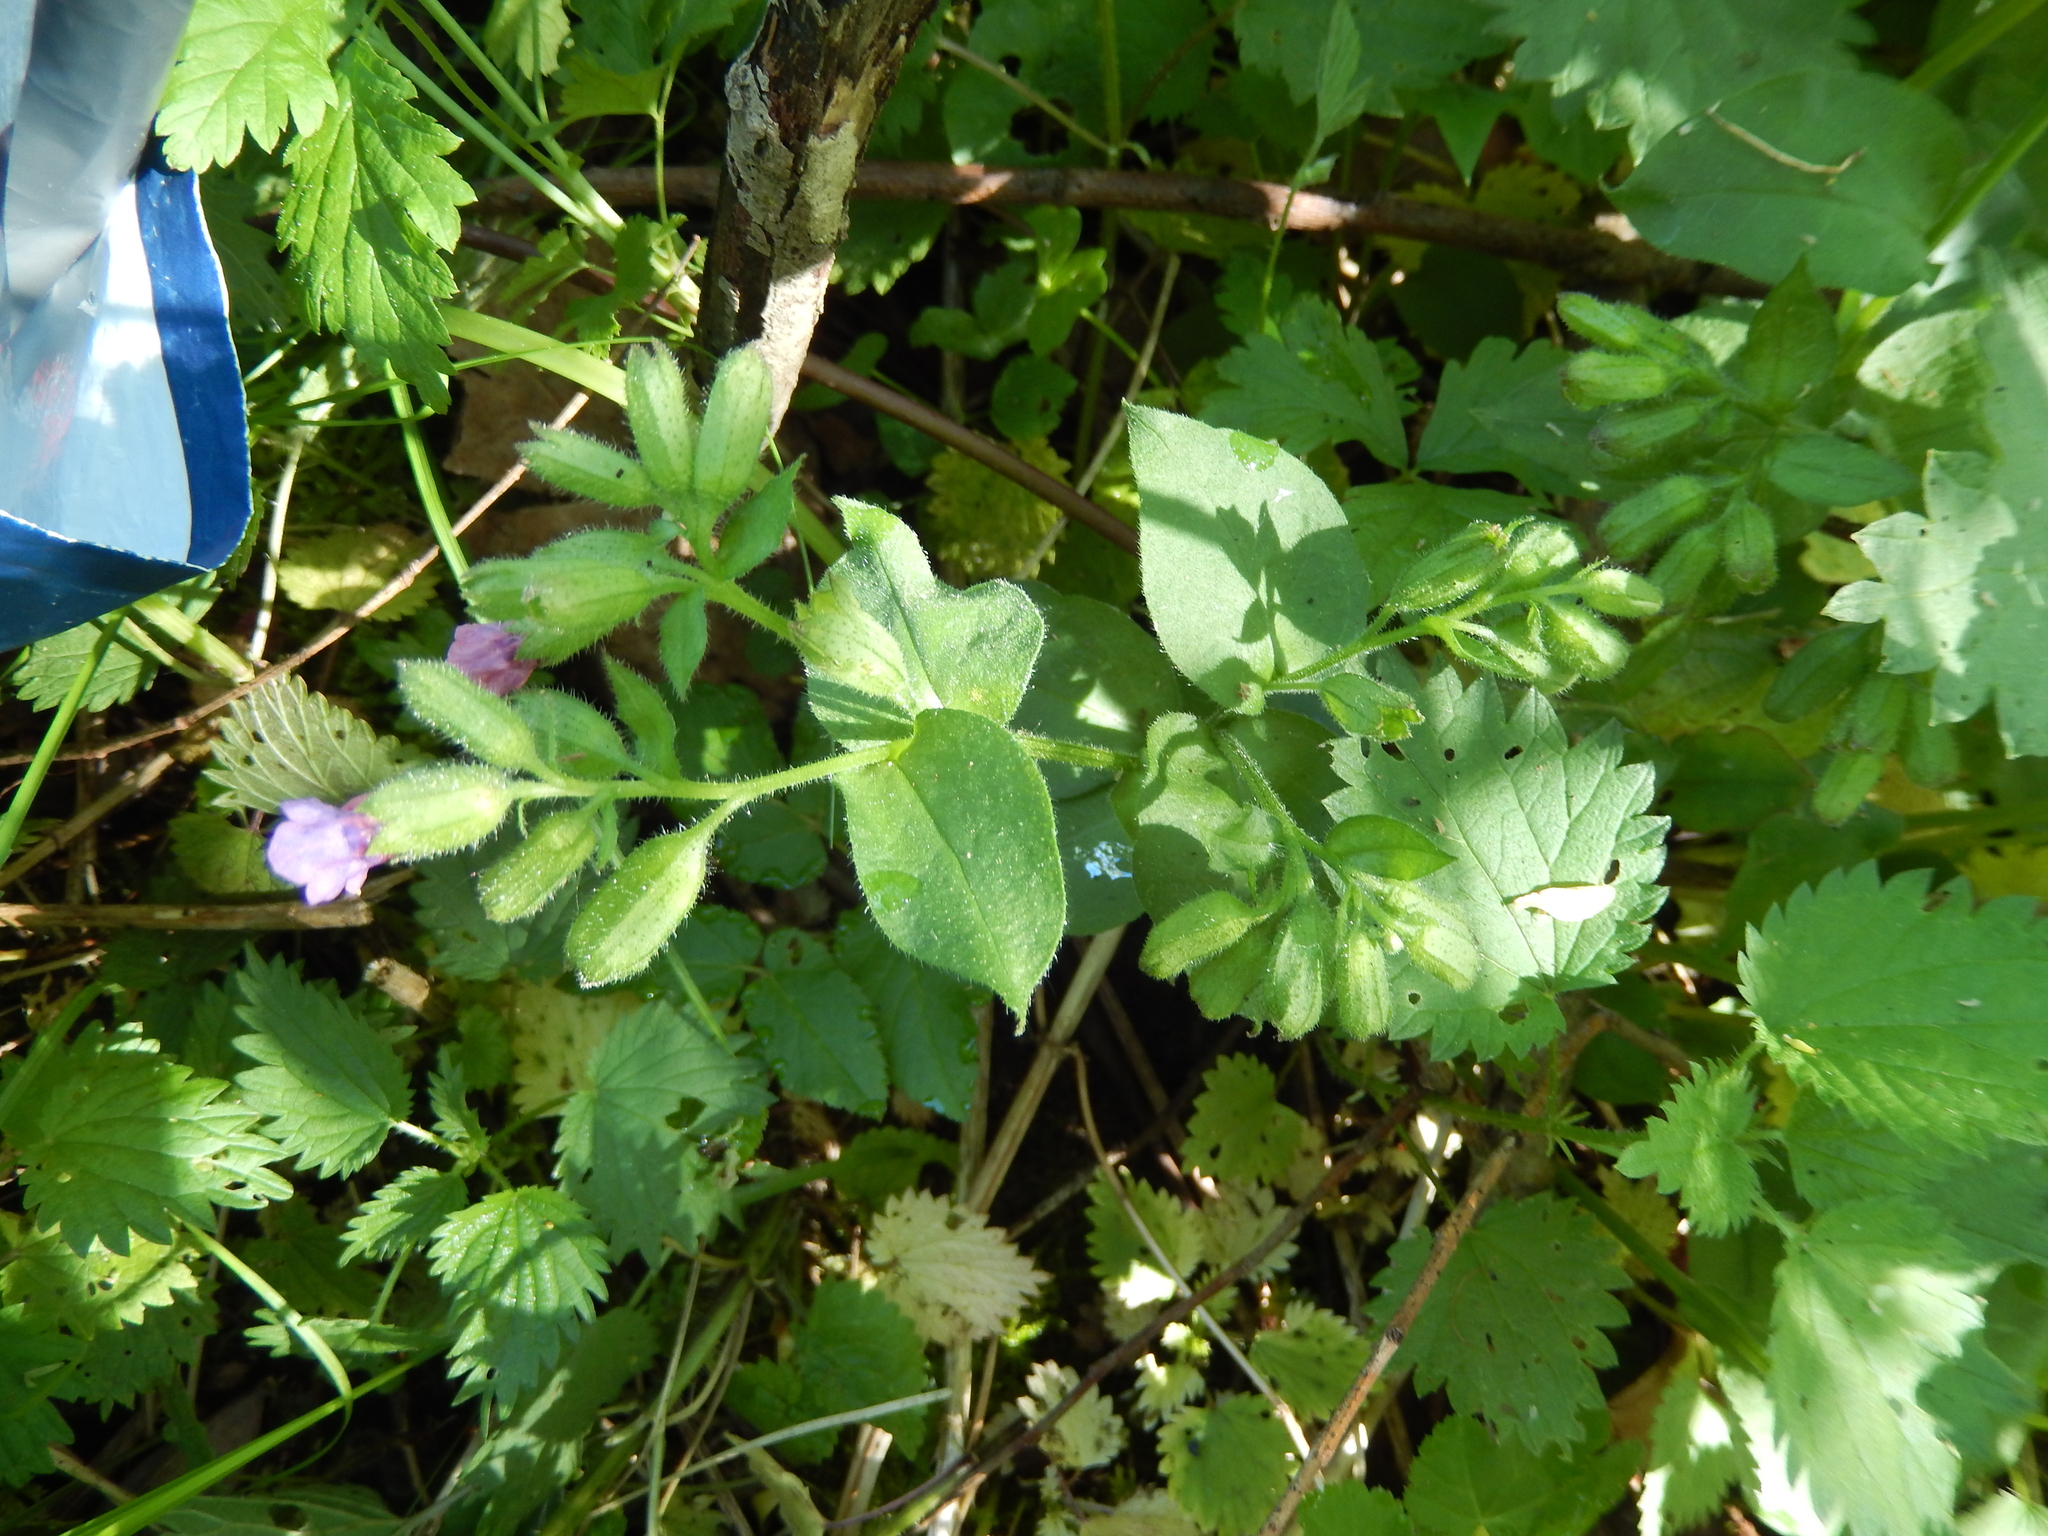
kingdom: Plantae
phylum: Tracheophyta
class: Magnoliopsida
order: Boraginales
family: Boraginaceae
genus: Pulmonaria
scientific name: Pulmonaria obscura
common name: Suffolk lungwort
